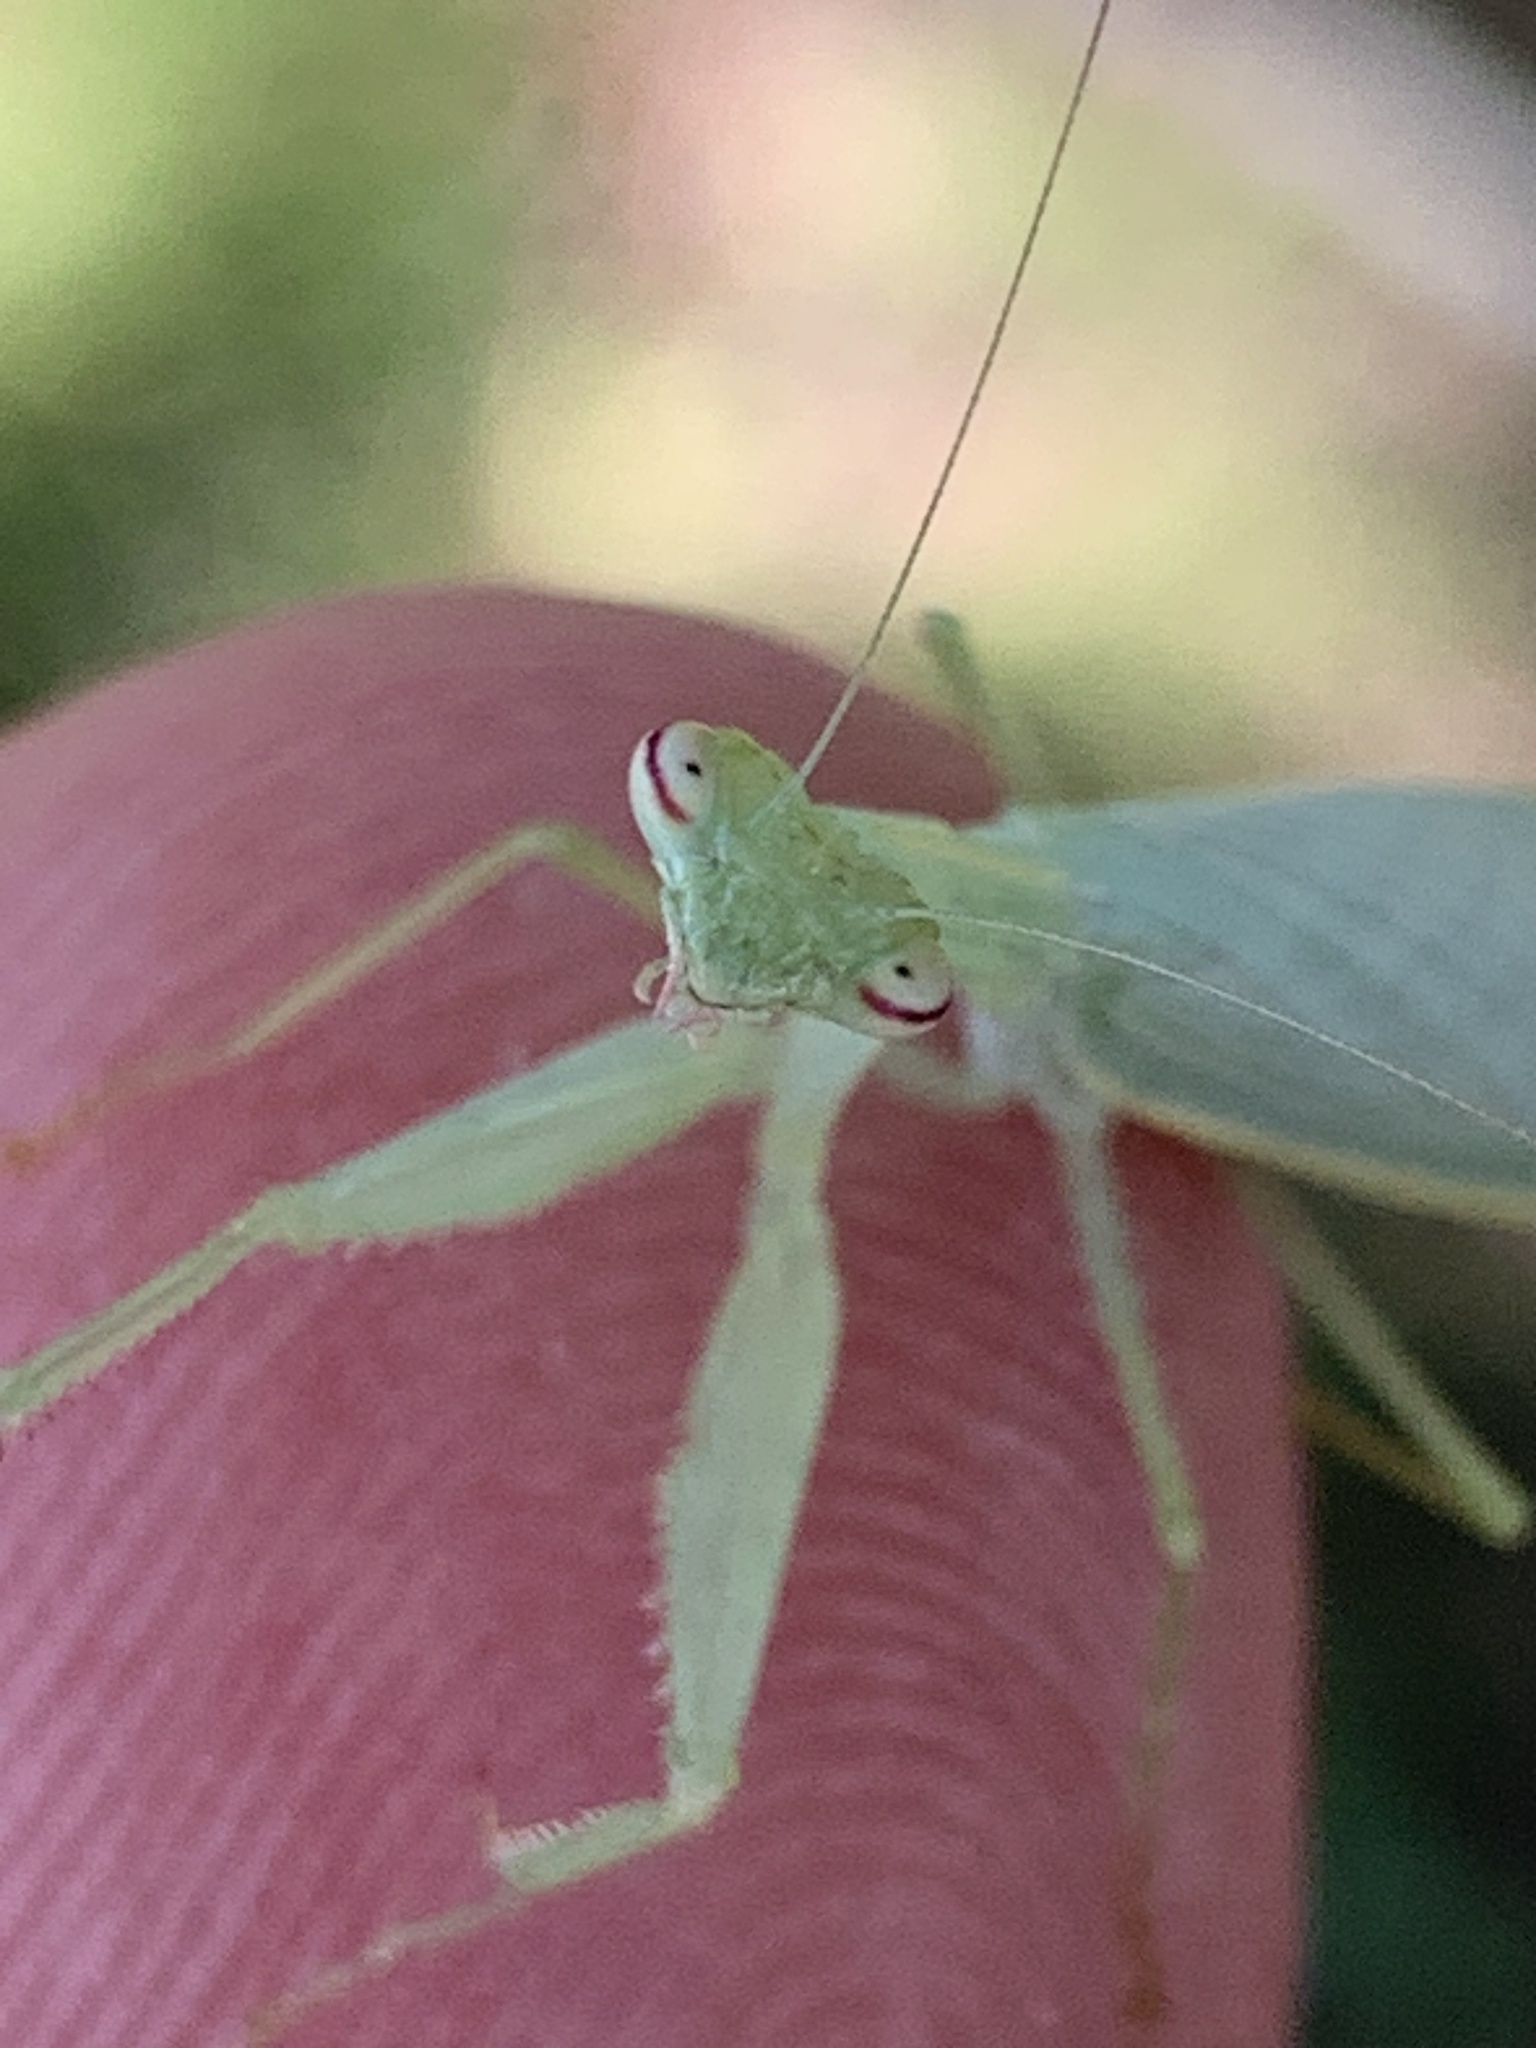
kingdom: Animalia
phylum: Arthropoda
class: Insecta
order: Mantodea
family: Nanomantidae
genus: Kongobatha
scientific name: Kongobatha diademata
